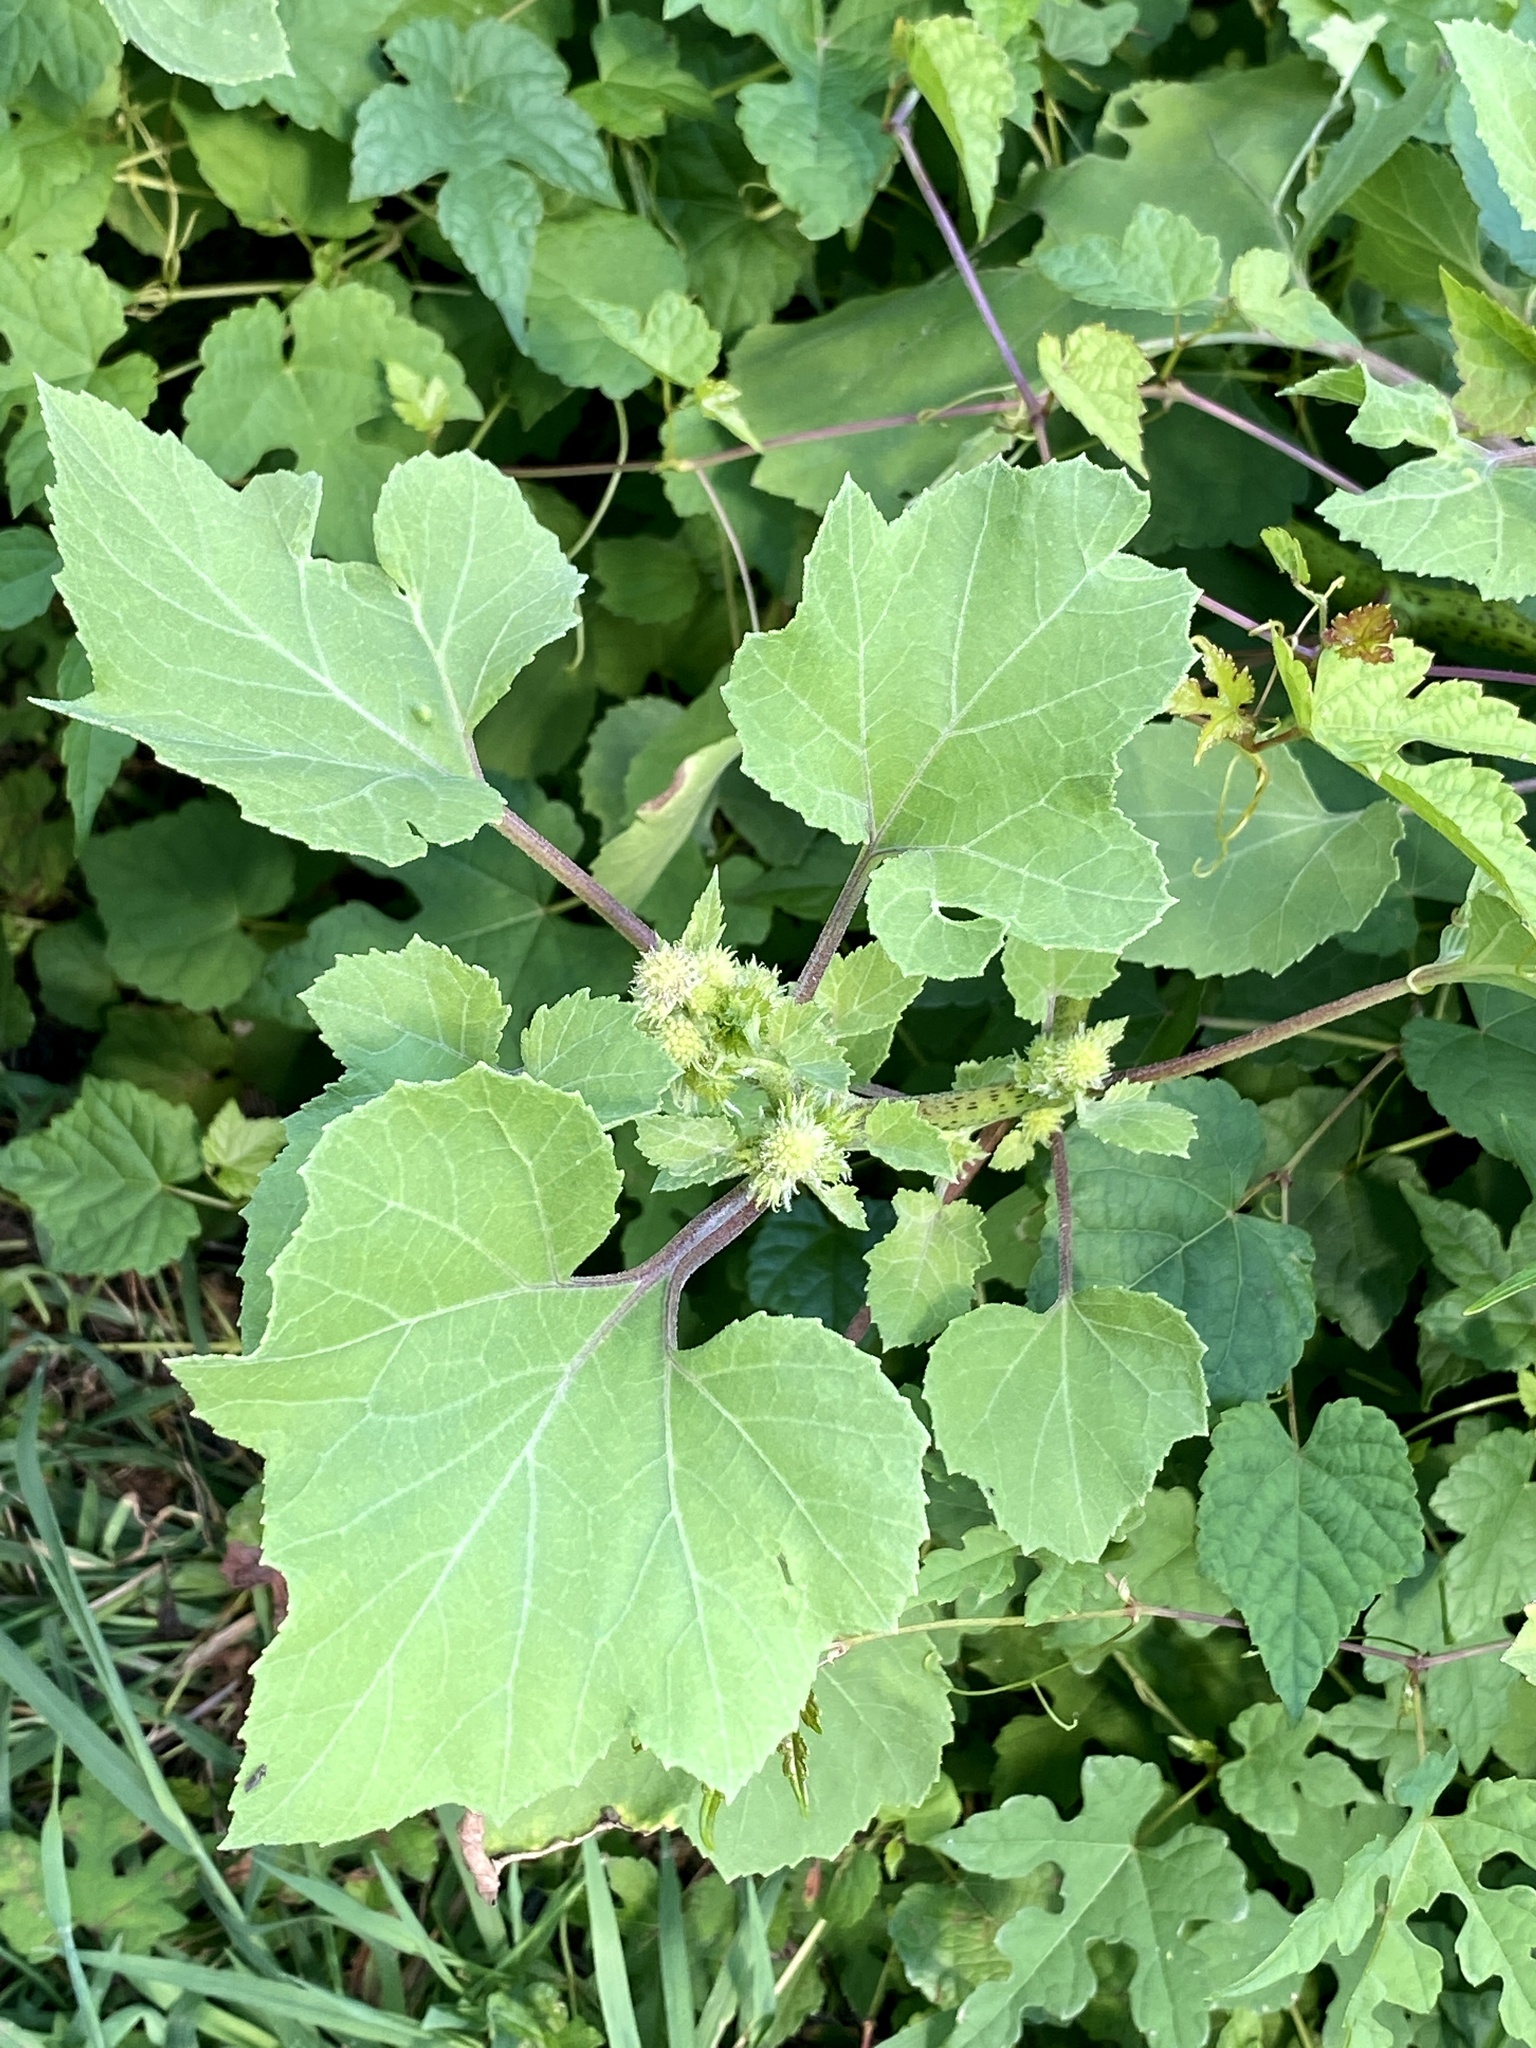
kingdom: Plantae
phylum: Tracheophyta
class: Magnoliopsida
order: Asterales
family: Asteraceae
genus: Xanthium
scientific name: Xanthium strumarium
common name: Rough cocklebur
